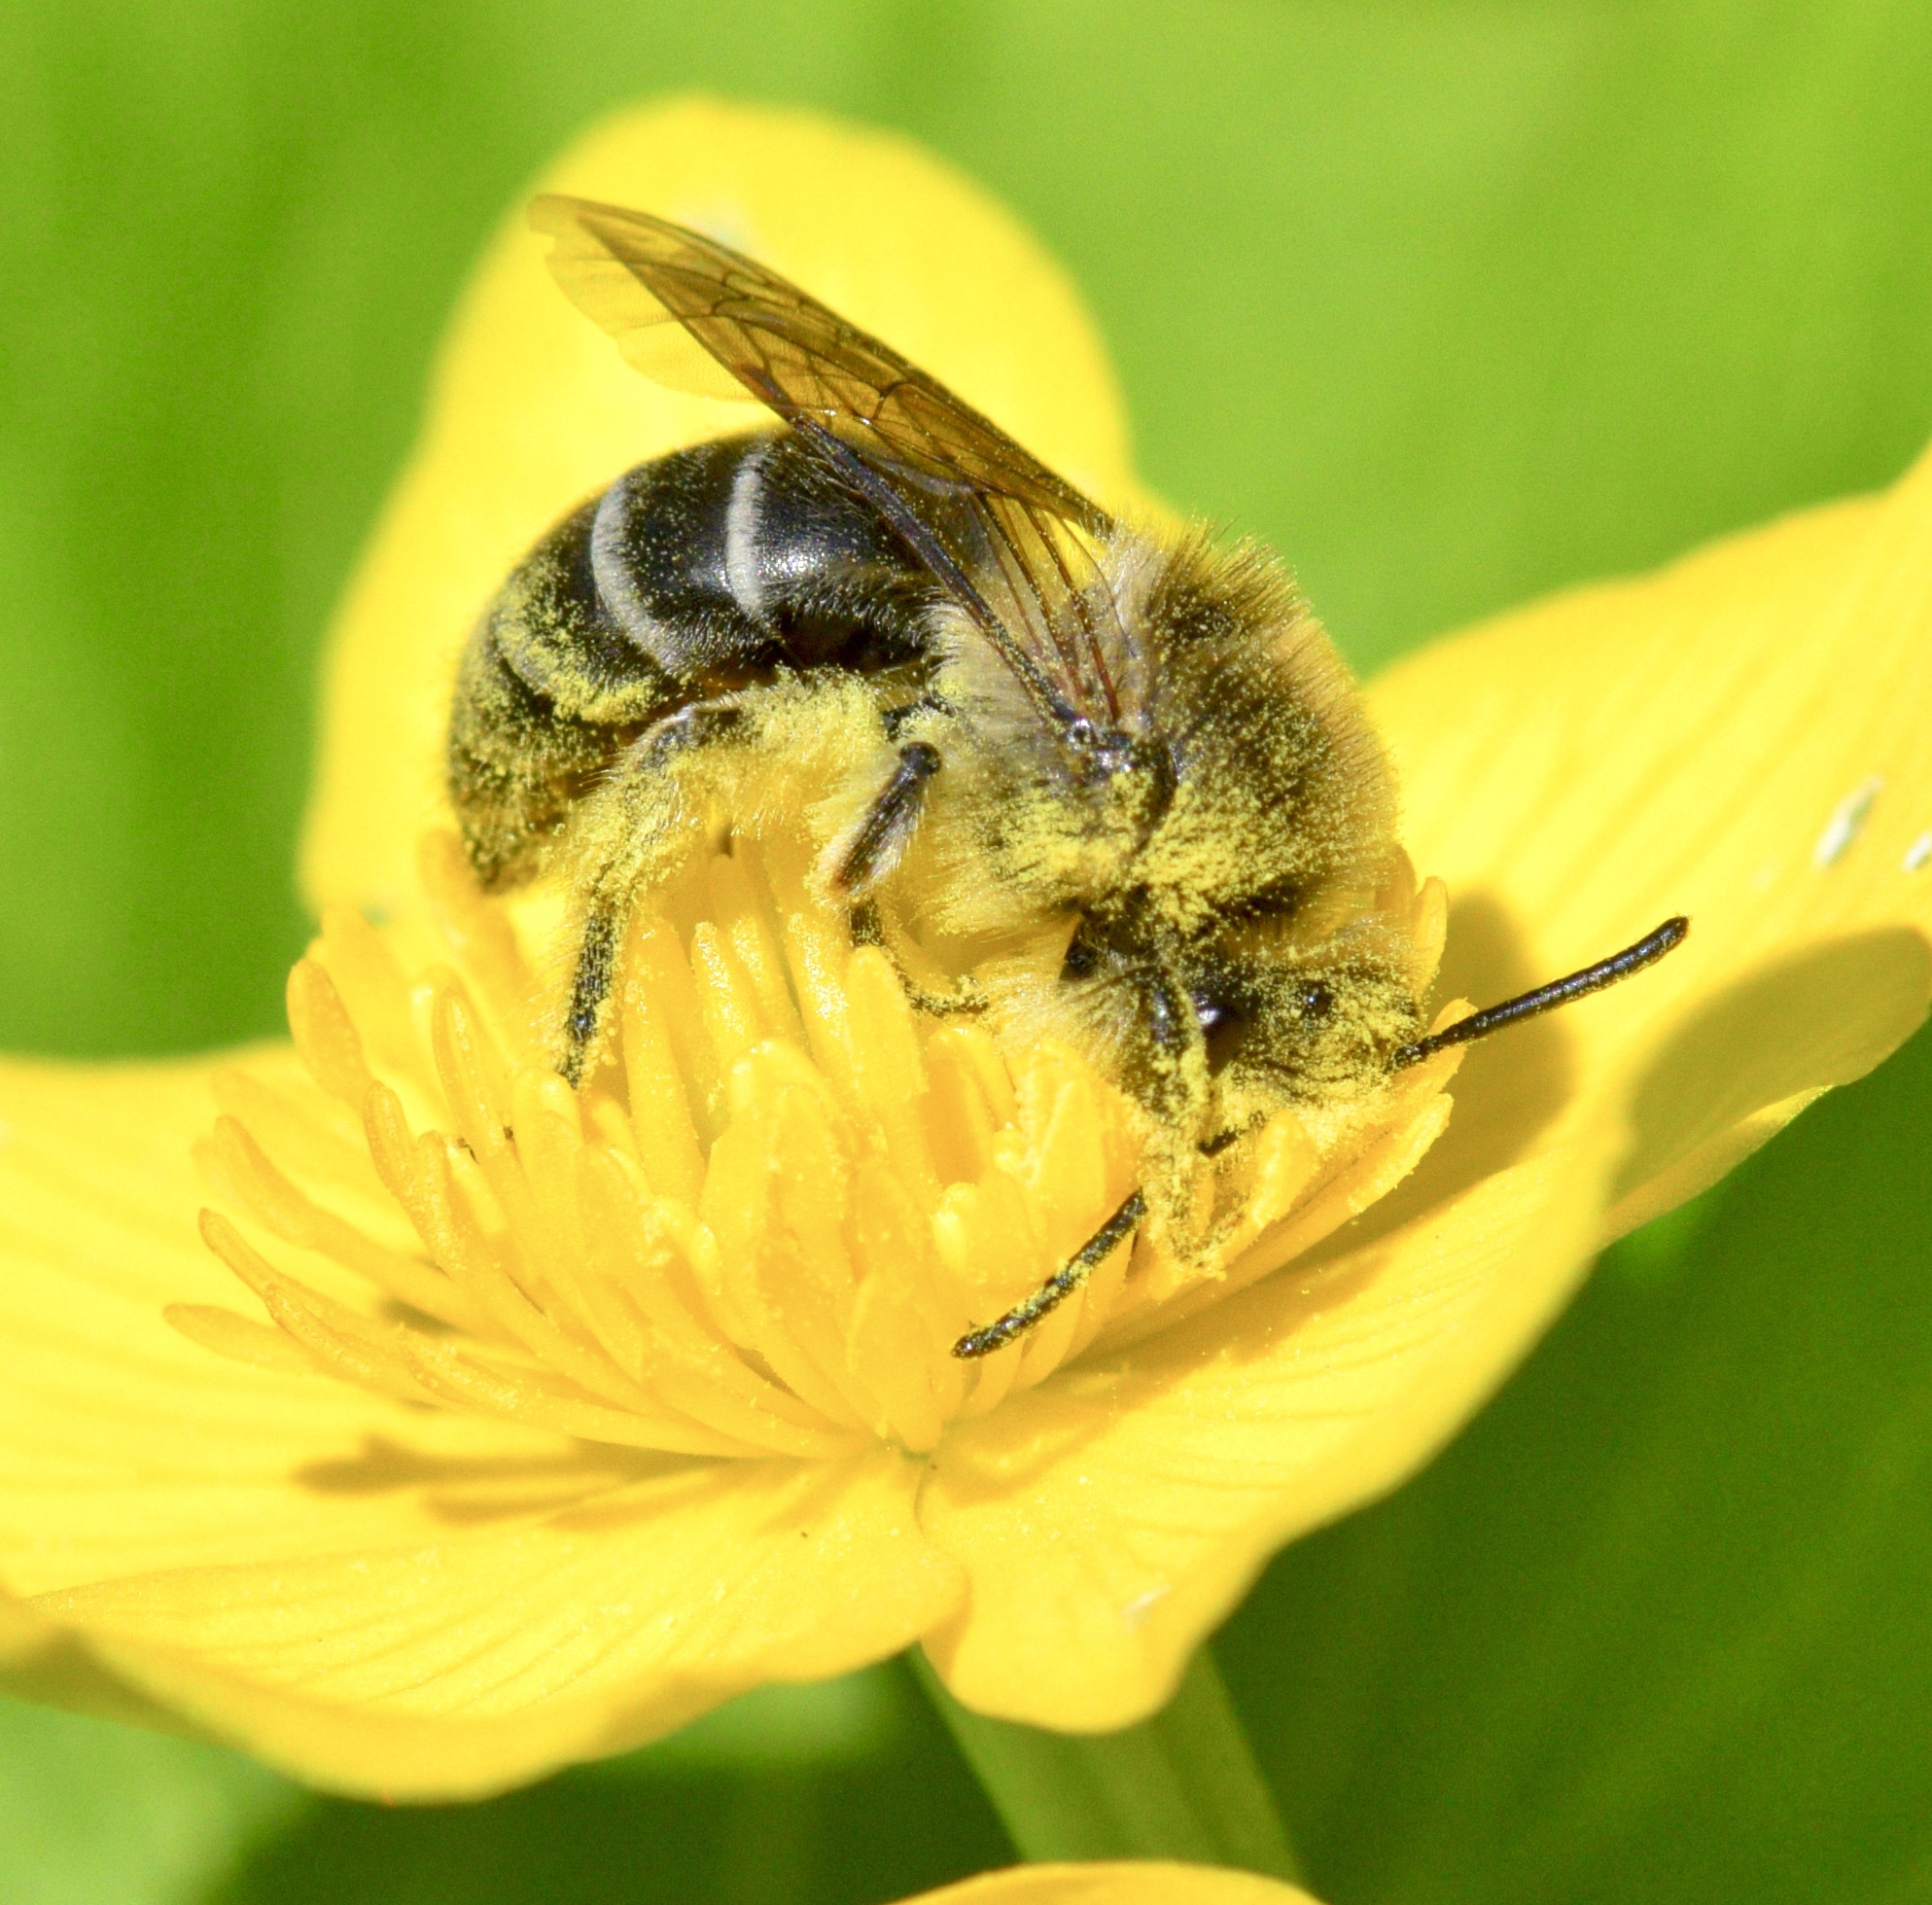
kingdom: Animalia
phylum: Arthropoda
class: Insecta
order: Hymenoptera
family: Colletidae
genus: Colletes
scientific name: Colletes inaequalis
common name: Unequal cellophane bee
